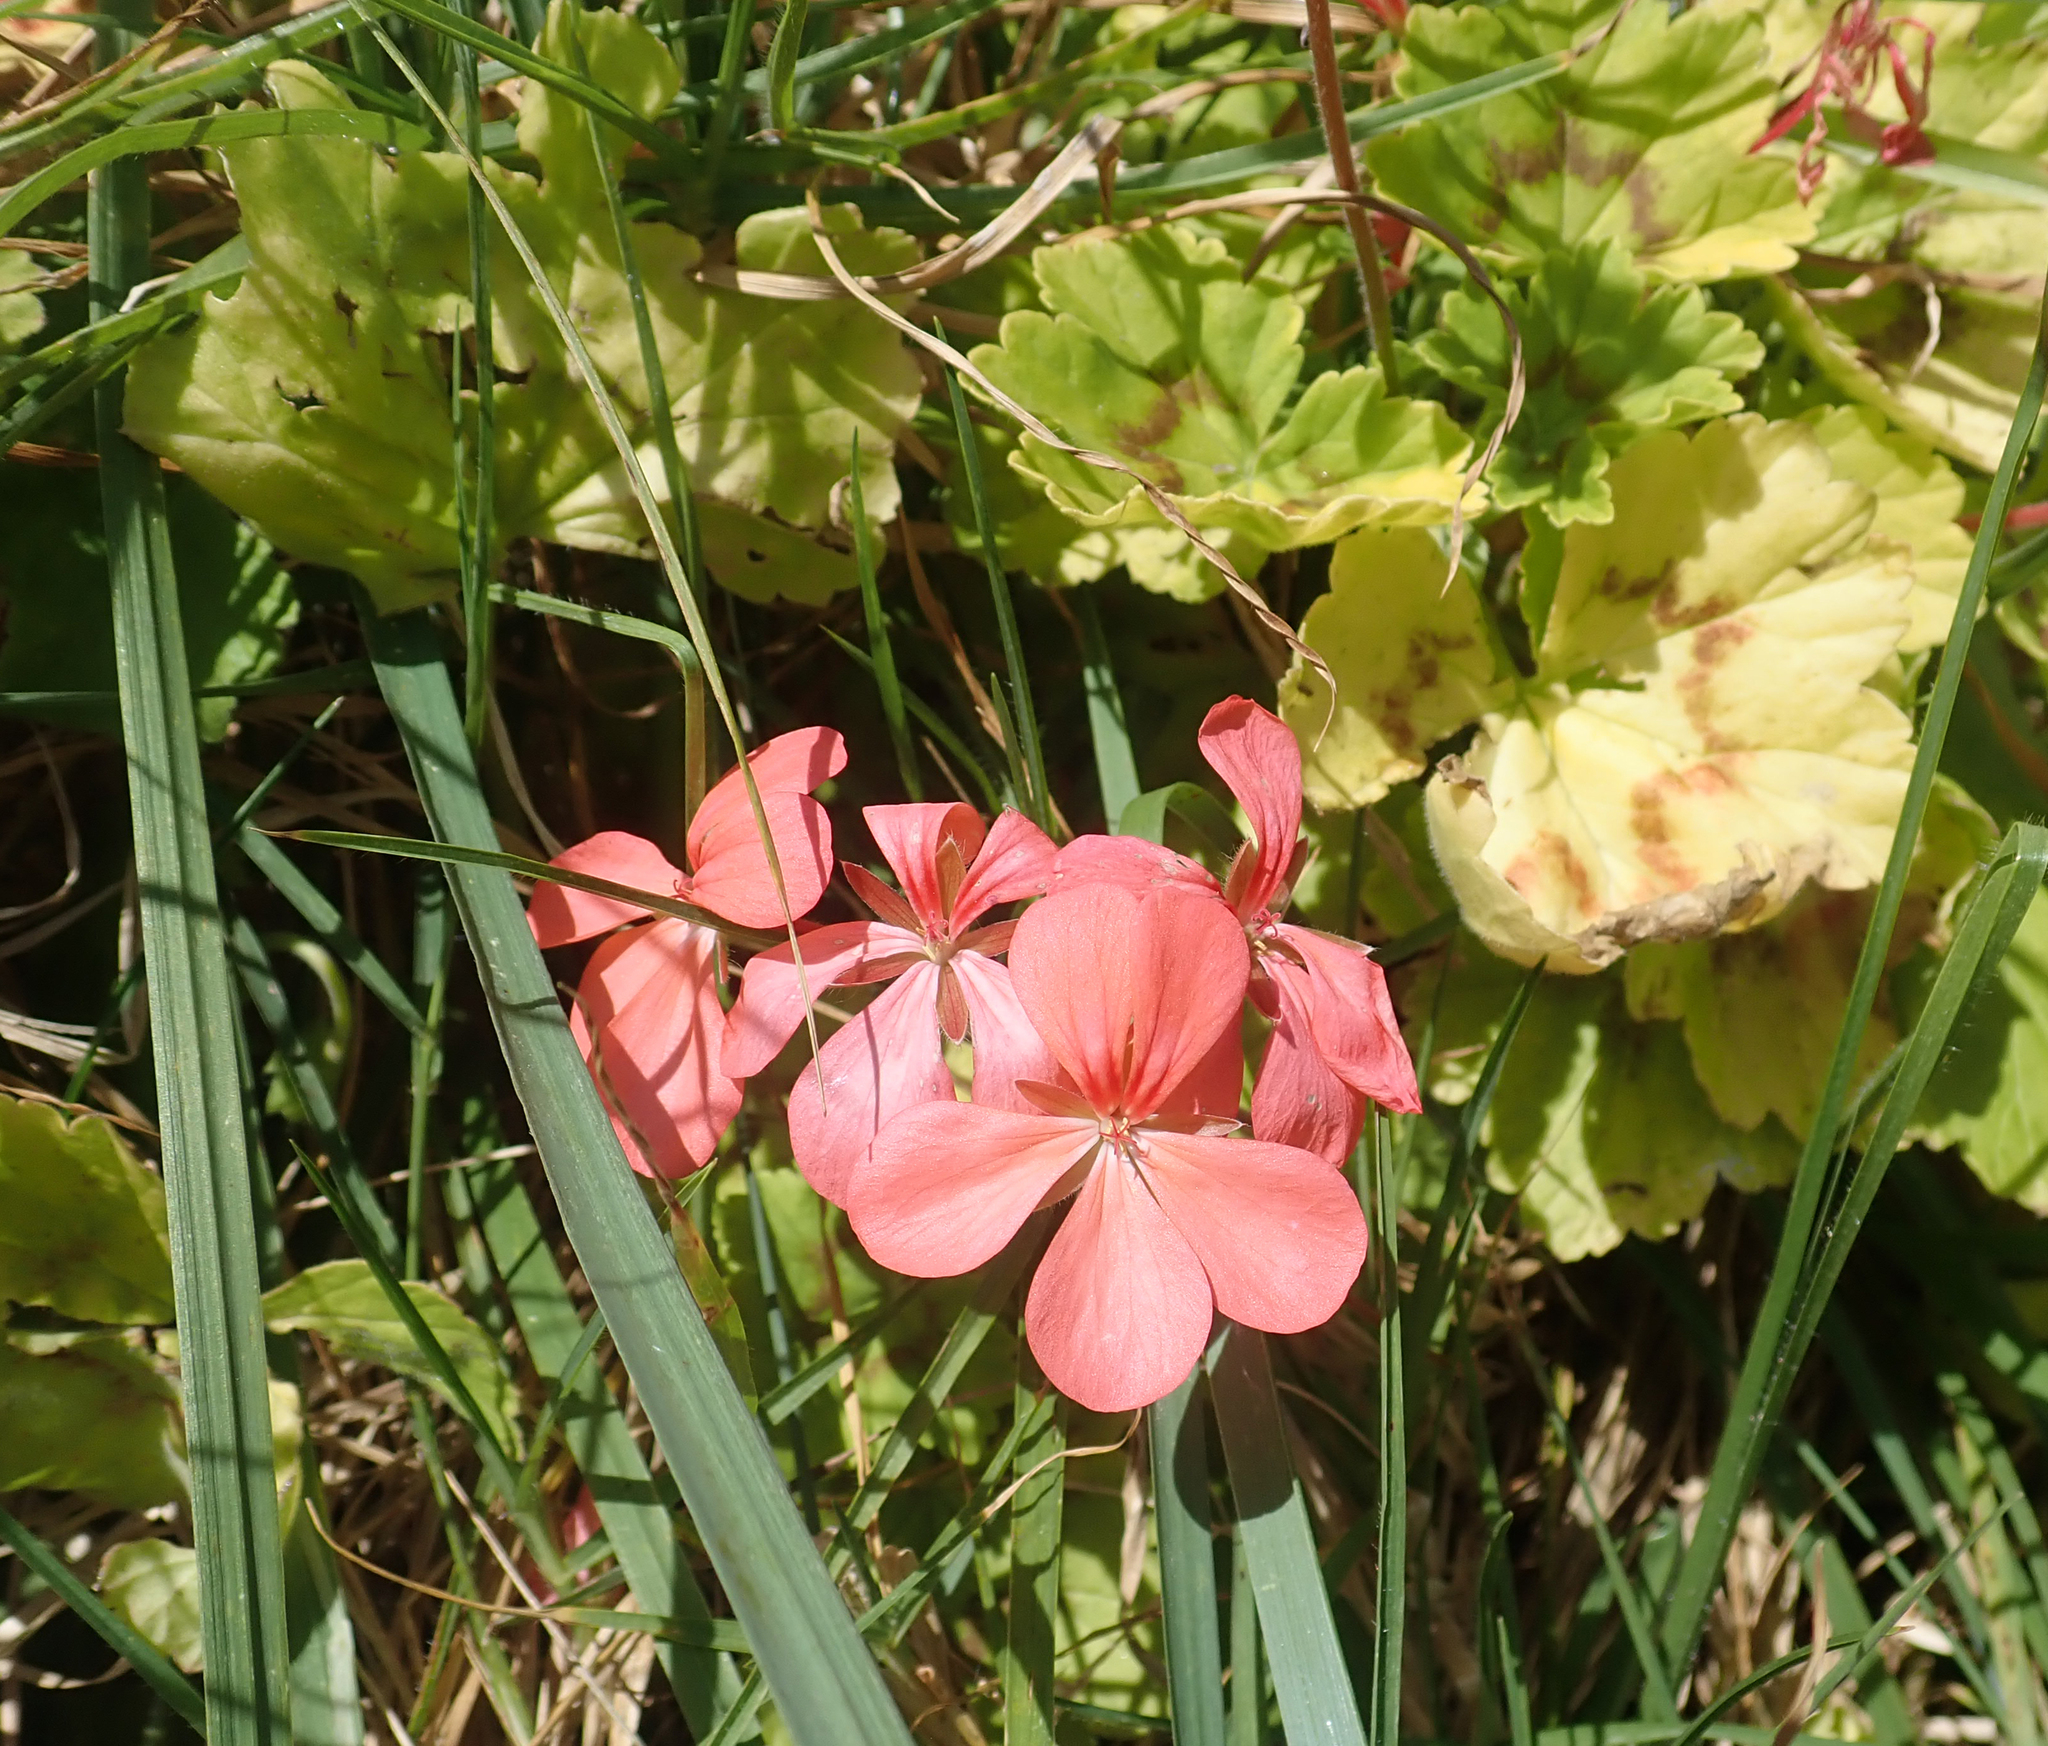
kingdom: Plantae
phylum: Tracheophyta
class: Magnoliopsida
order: Geraniales
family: Geraniaceae
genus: Pelargonium
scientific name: Pelargonium hybridum
